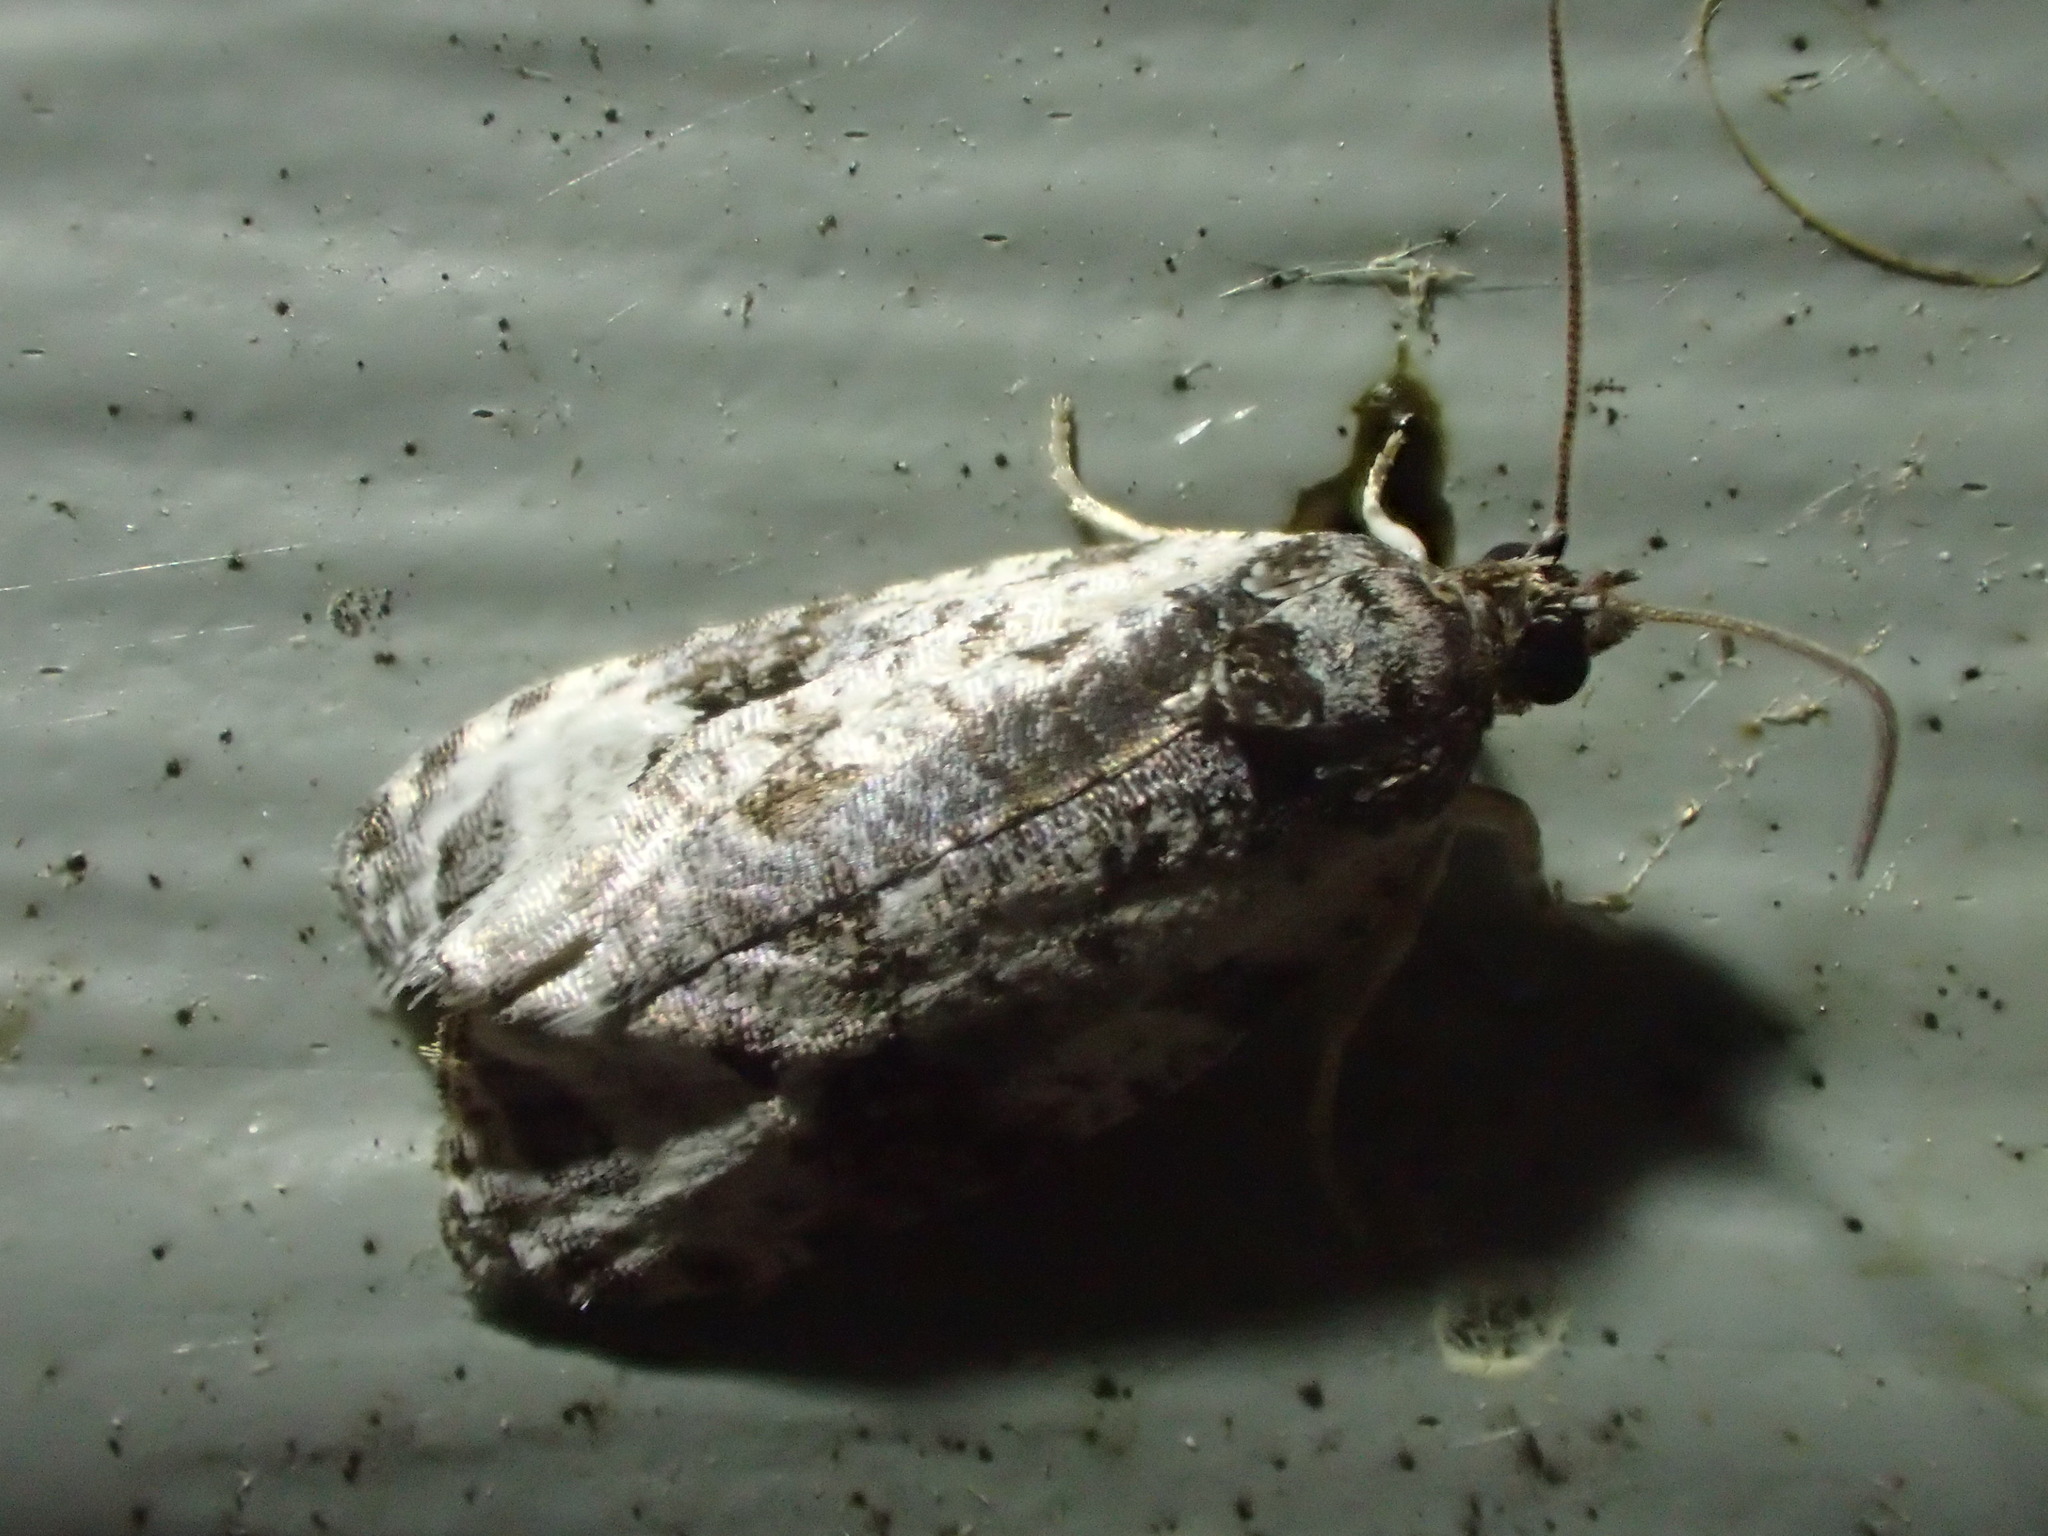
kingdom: Animalia
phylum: Arthropoda
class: Insecta
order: Lepidoptera
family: Tortricidae
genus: Apotomis
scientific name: Apotomis albeolana
